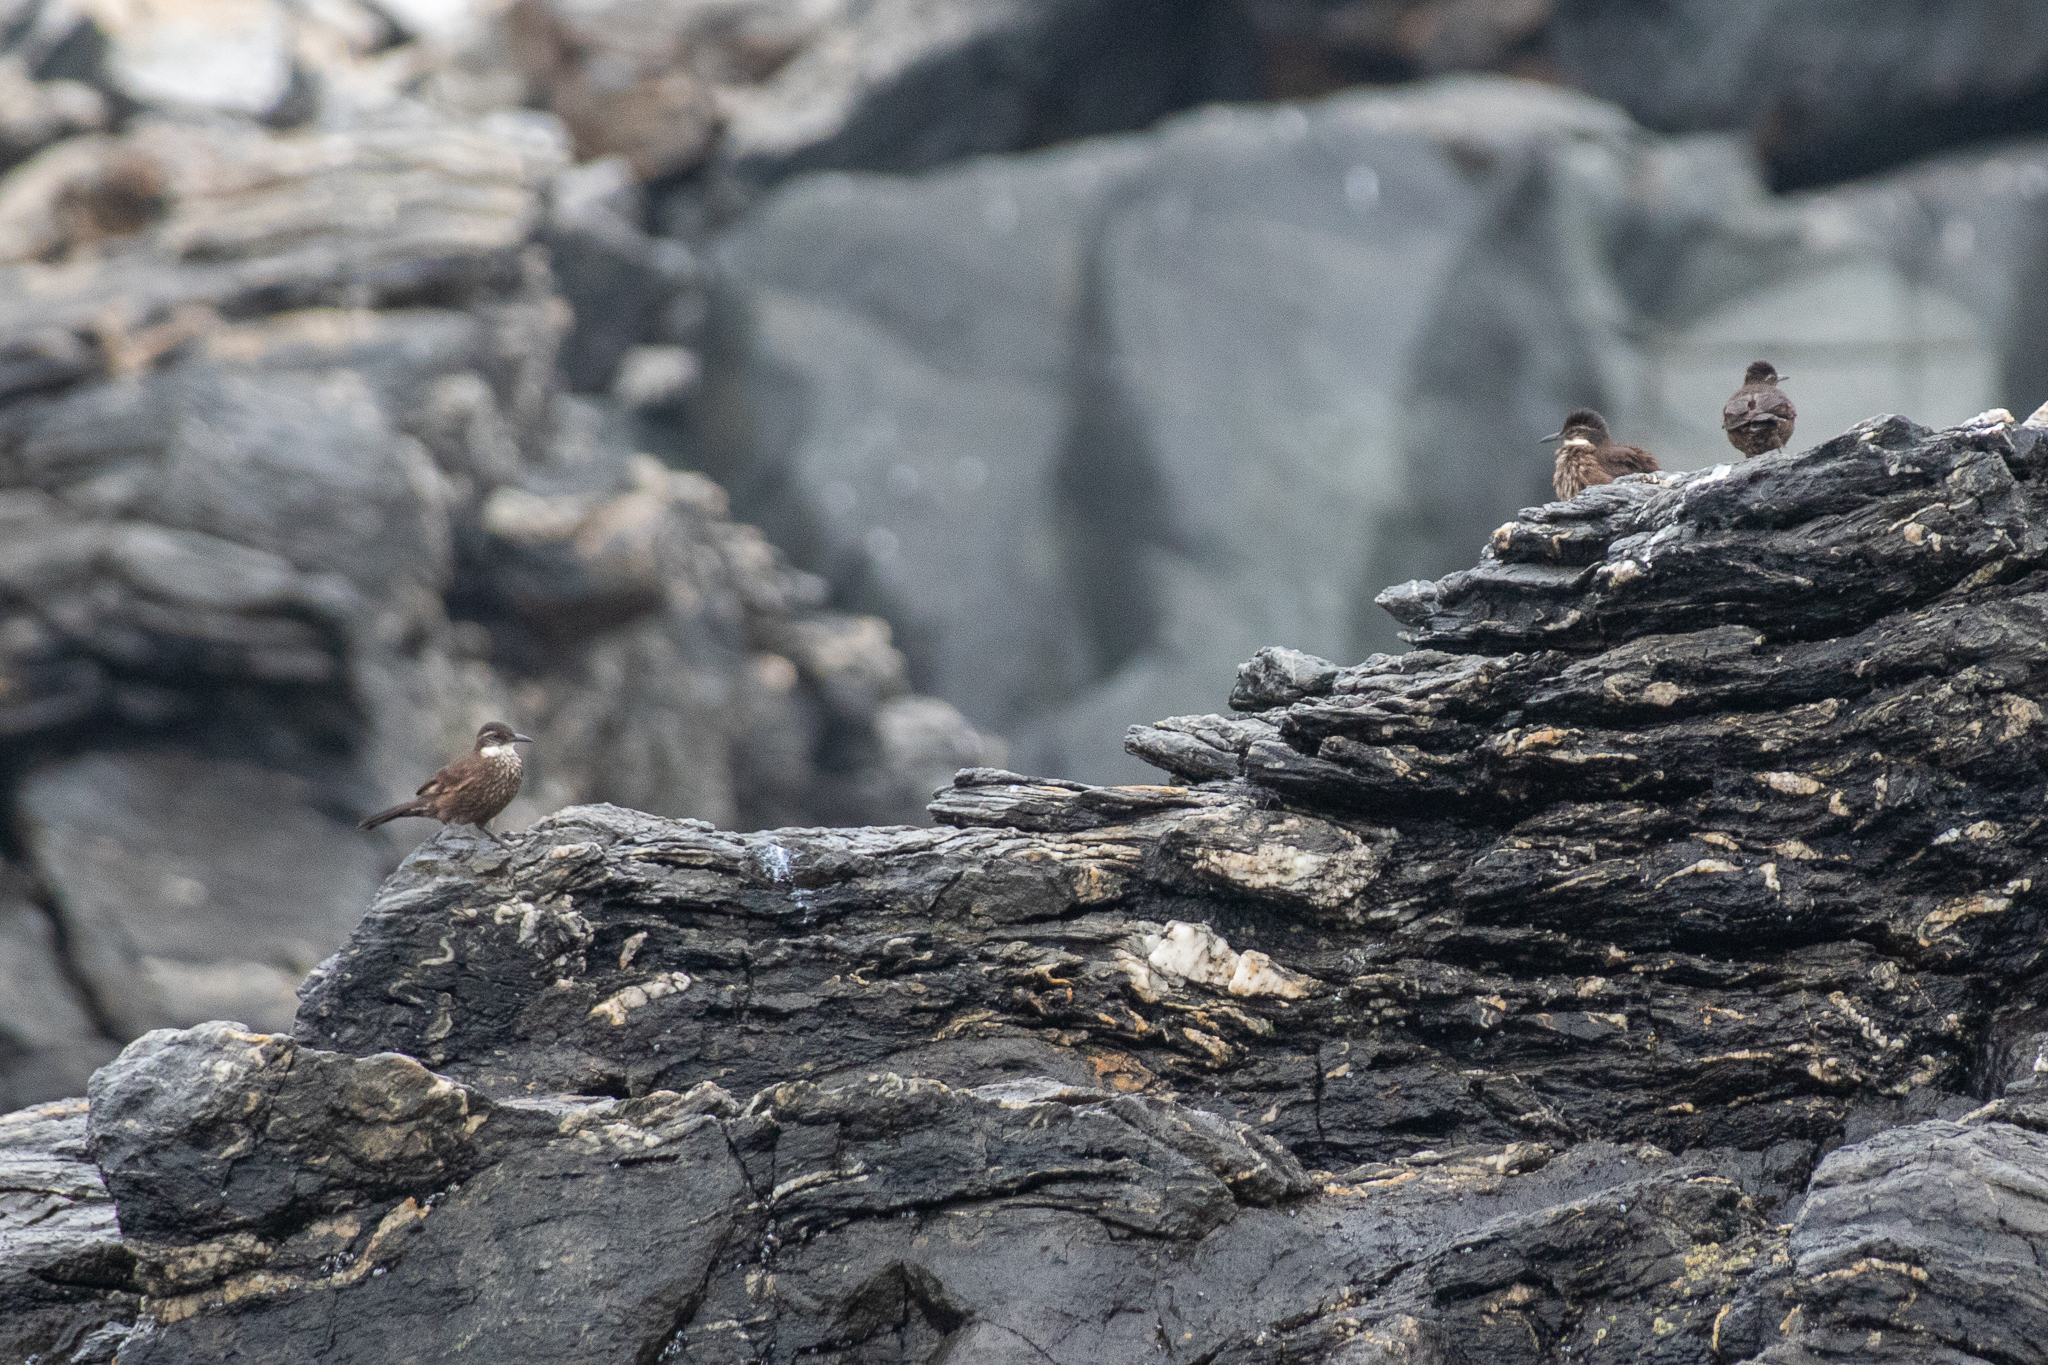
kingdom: Animalia
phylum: Chordata
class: Aves
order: Passeriformes
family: Furnariidae
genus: Cinclodes
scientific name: Cinclodes nigrofumosus
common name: Chilean seaside cinclodes
